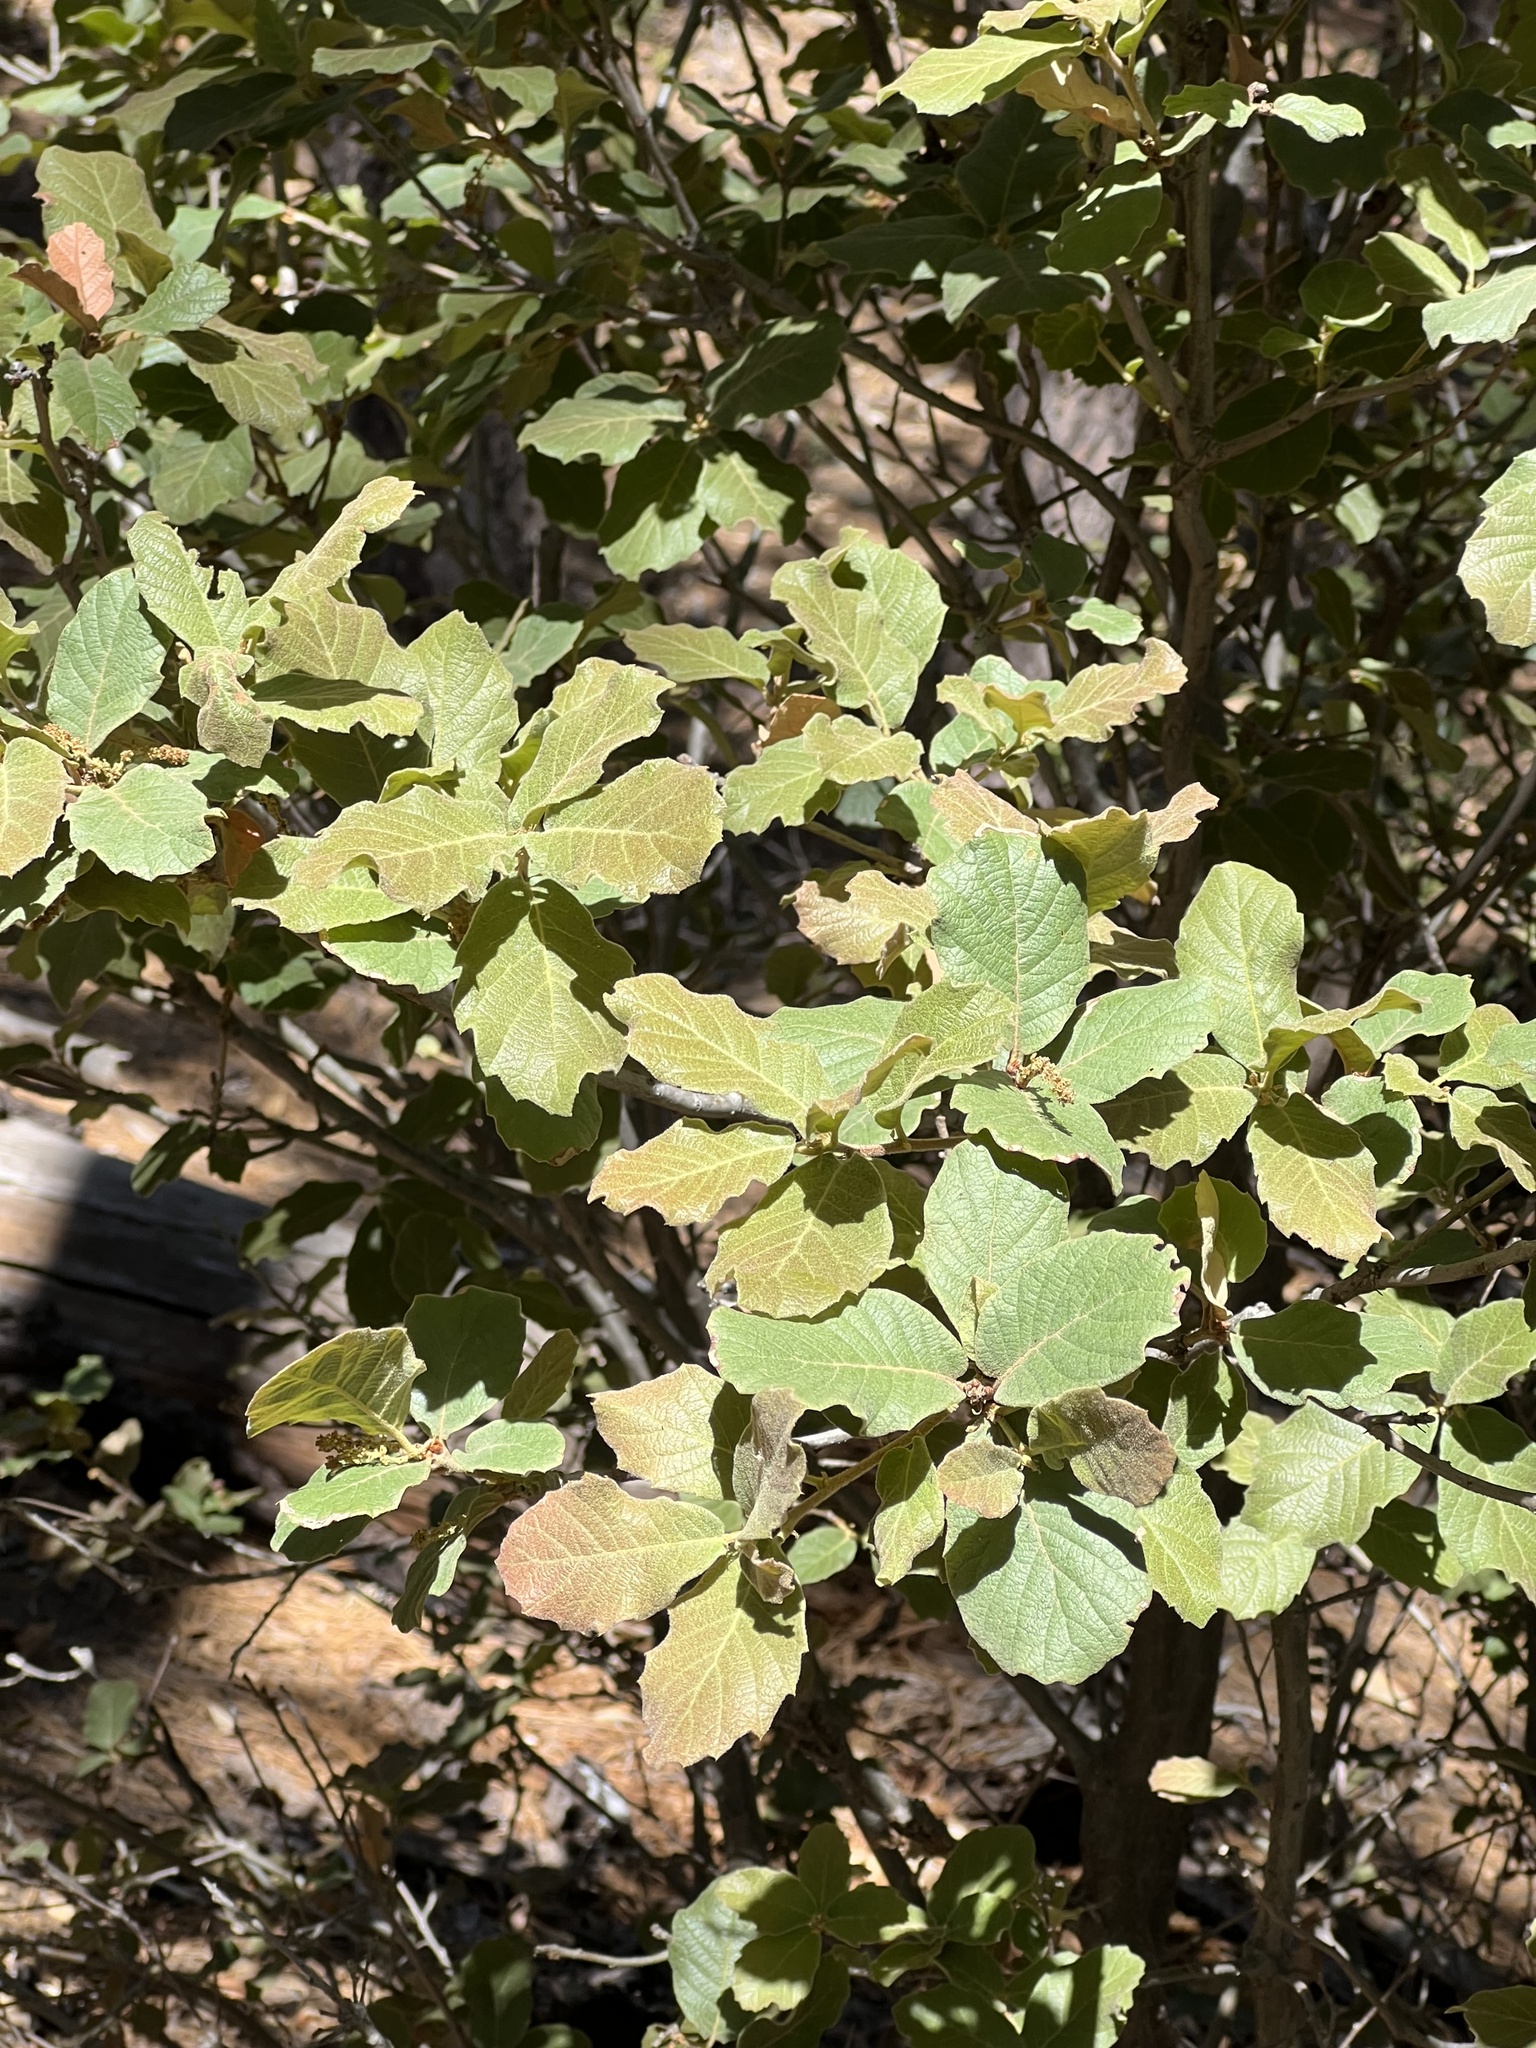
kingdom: Plantae
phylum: Tracheophyta
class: Magnoliopsida
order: Fagales
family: Fagaceae
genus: Quercus
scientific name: Quercus rugosa
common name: Netleaf oak
